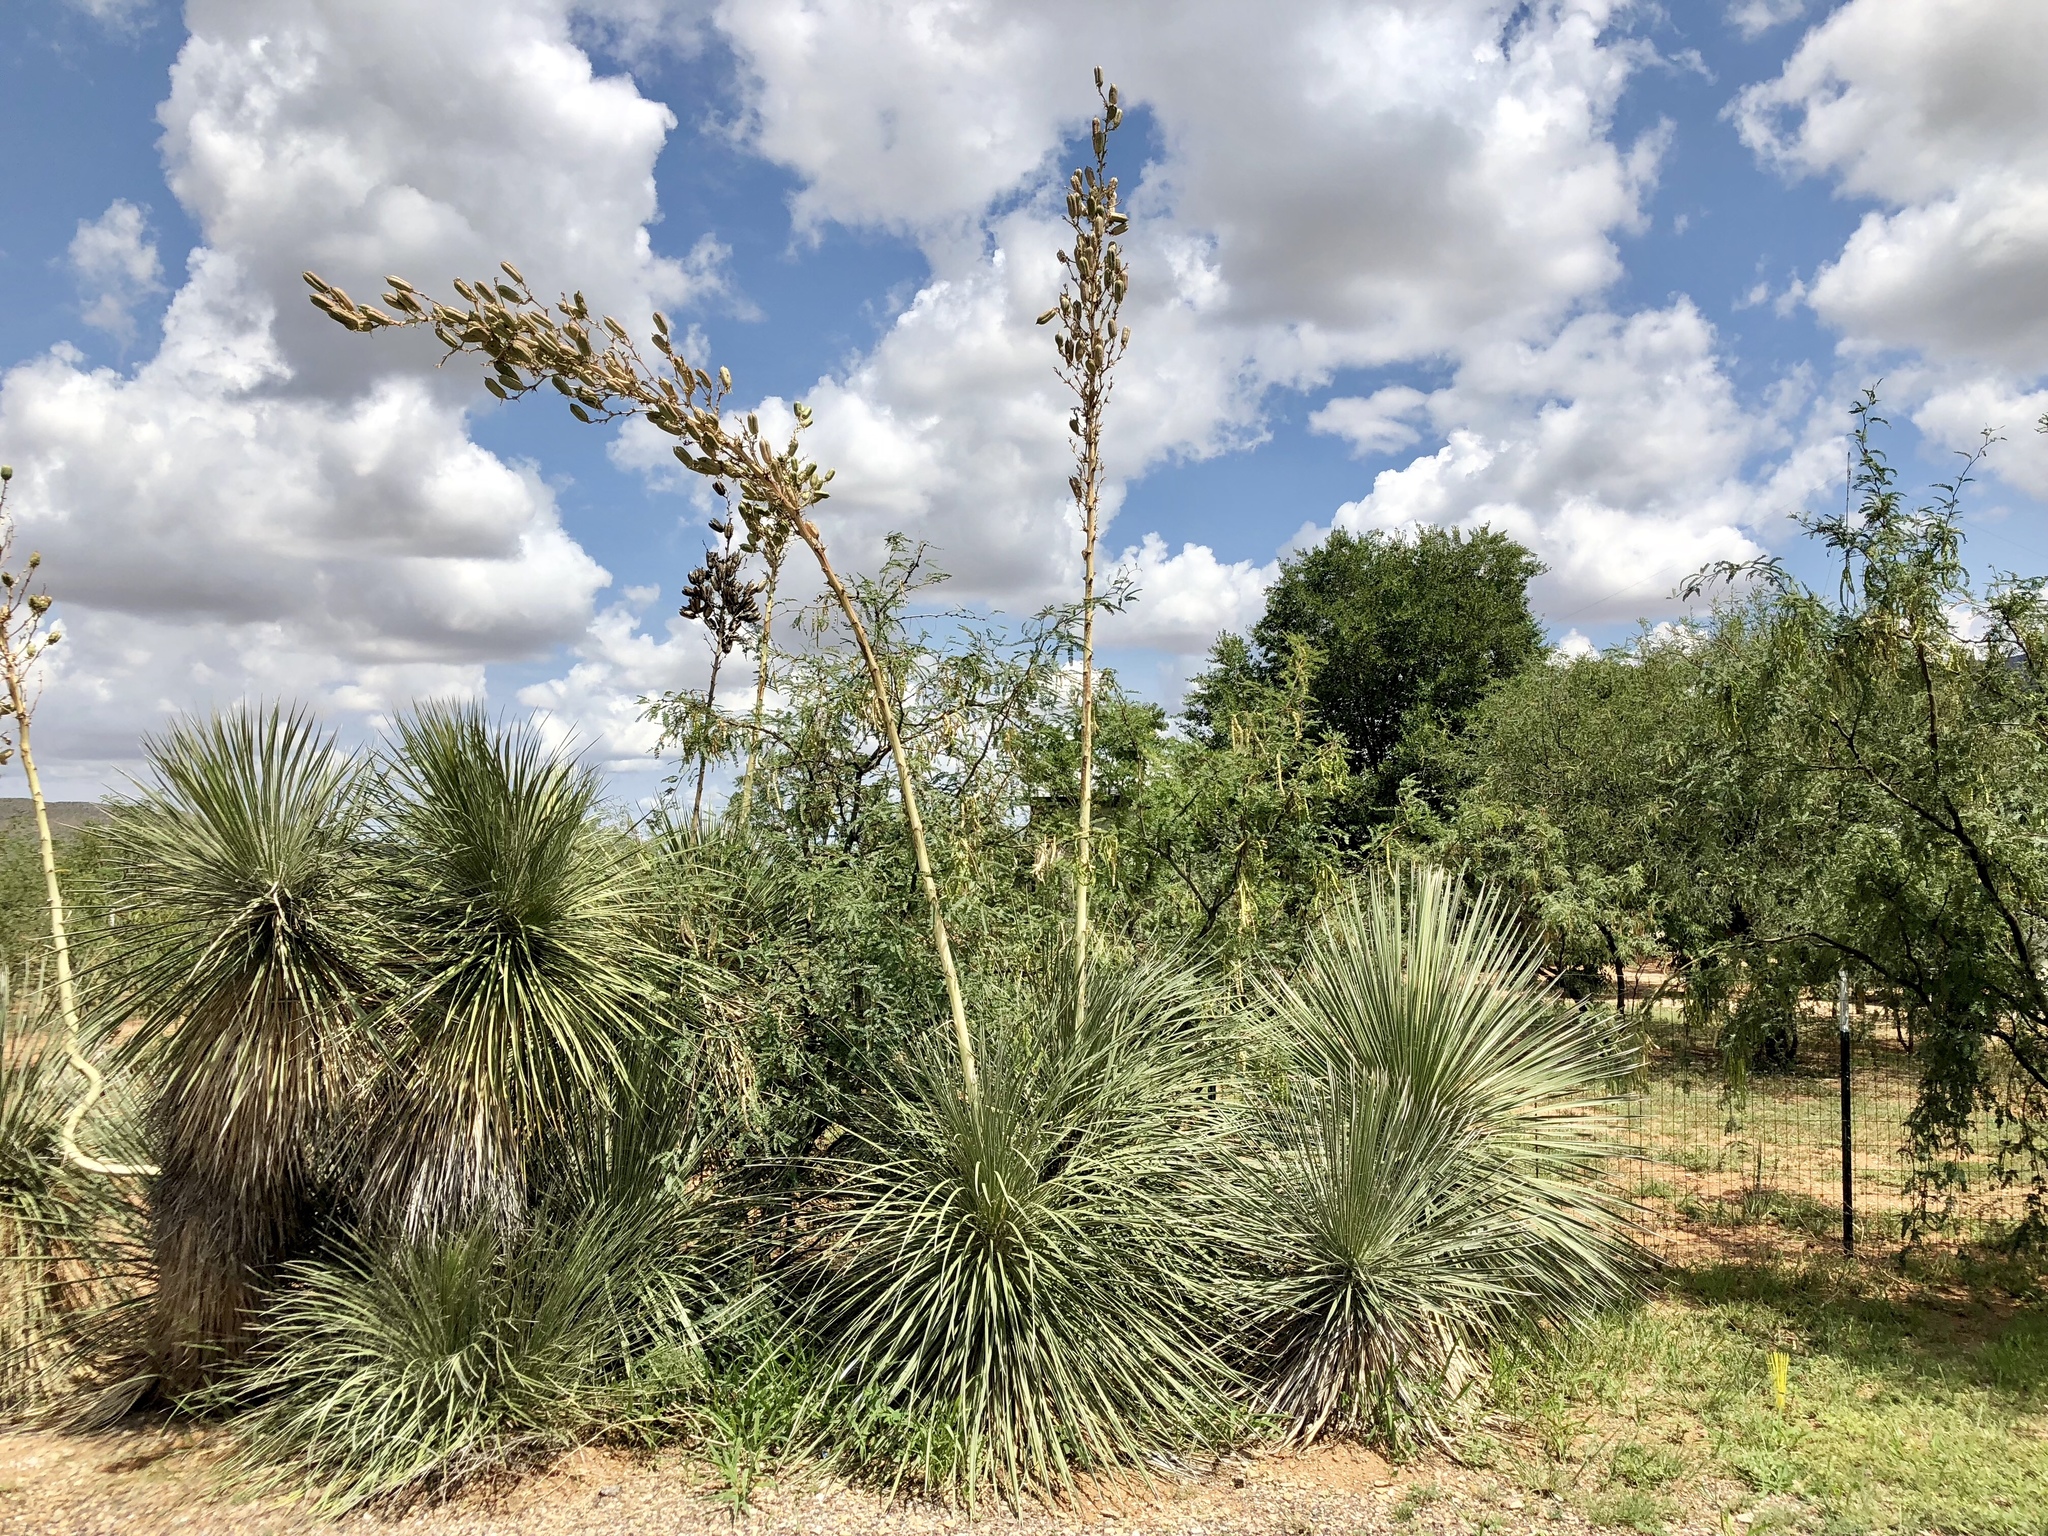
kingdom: Plantae
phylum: Tracheophyta
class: Liliopsida
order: Asparagales
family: Asparagaceae
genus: Yucca
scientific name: Yucca elata
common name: Palmella
